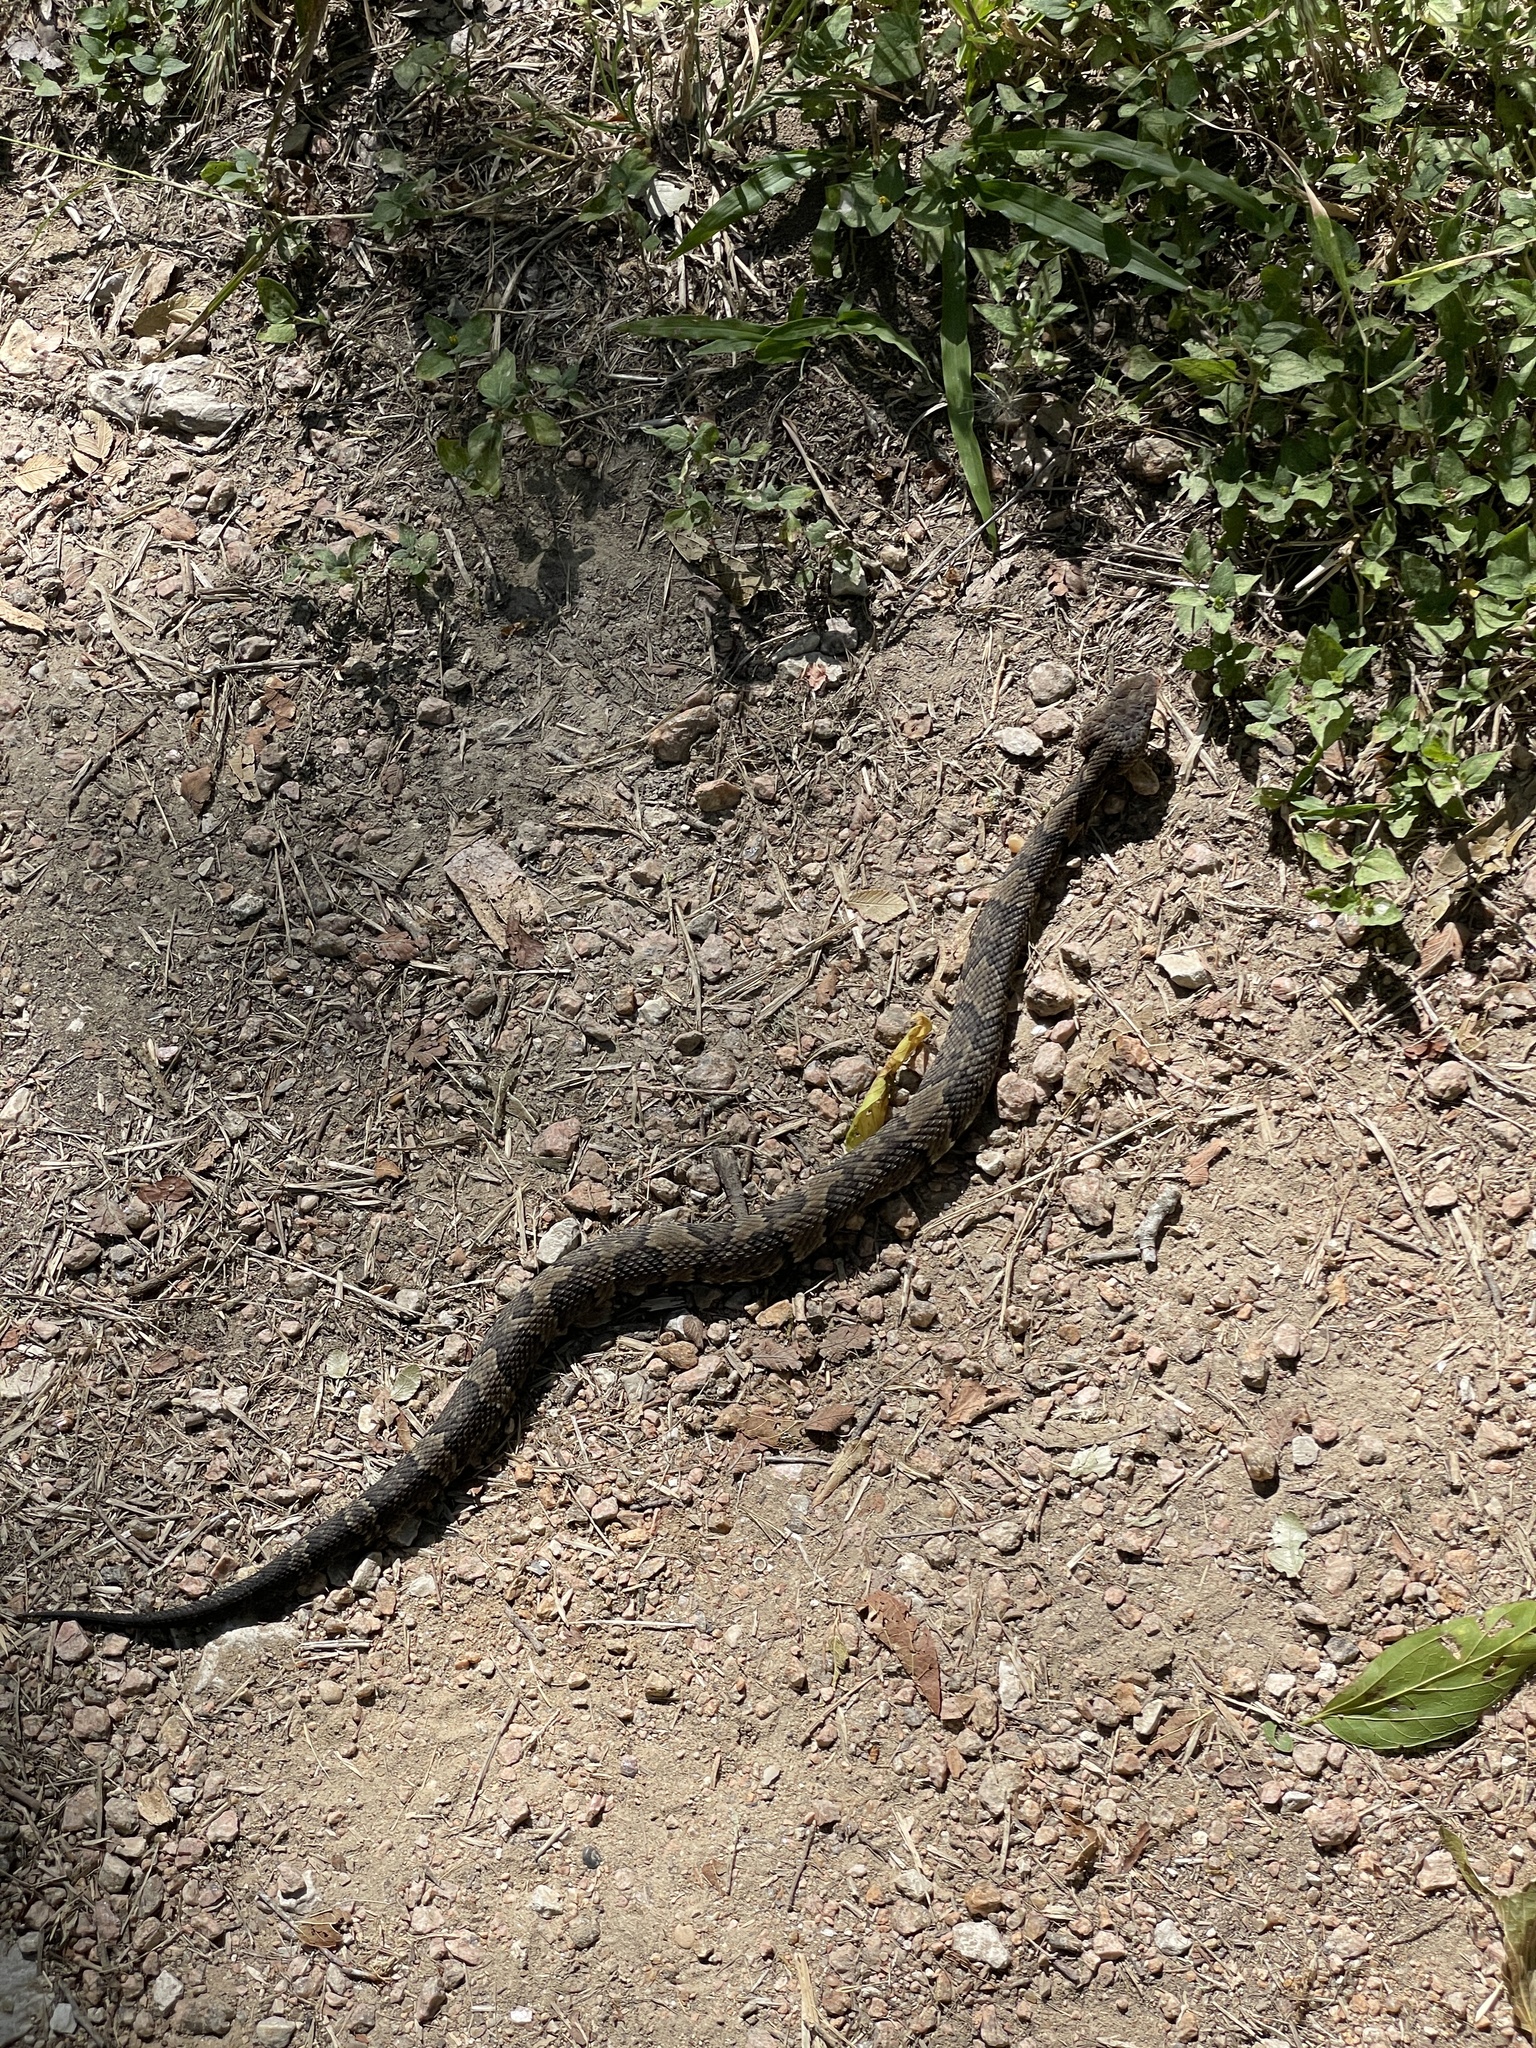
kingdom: Animalia
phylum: Chordata
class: Squamata
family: Viperidae
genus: Agkistrodon
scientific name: Agkistrodon piscivorus
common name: Cottonmouth
